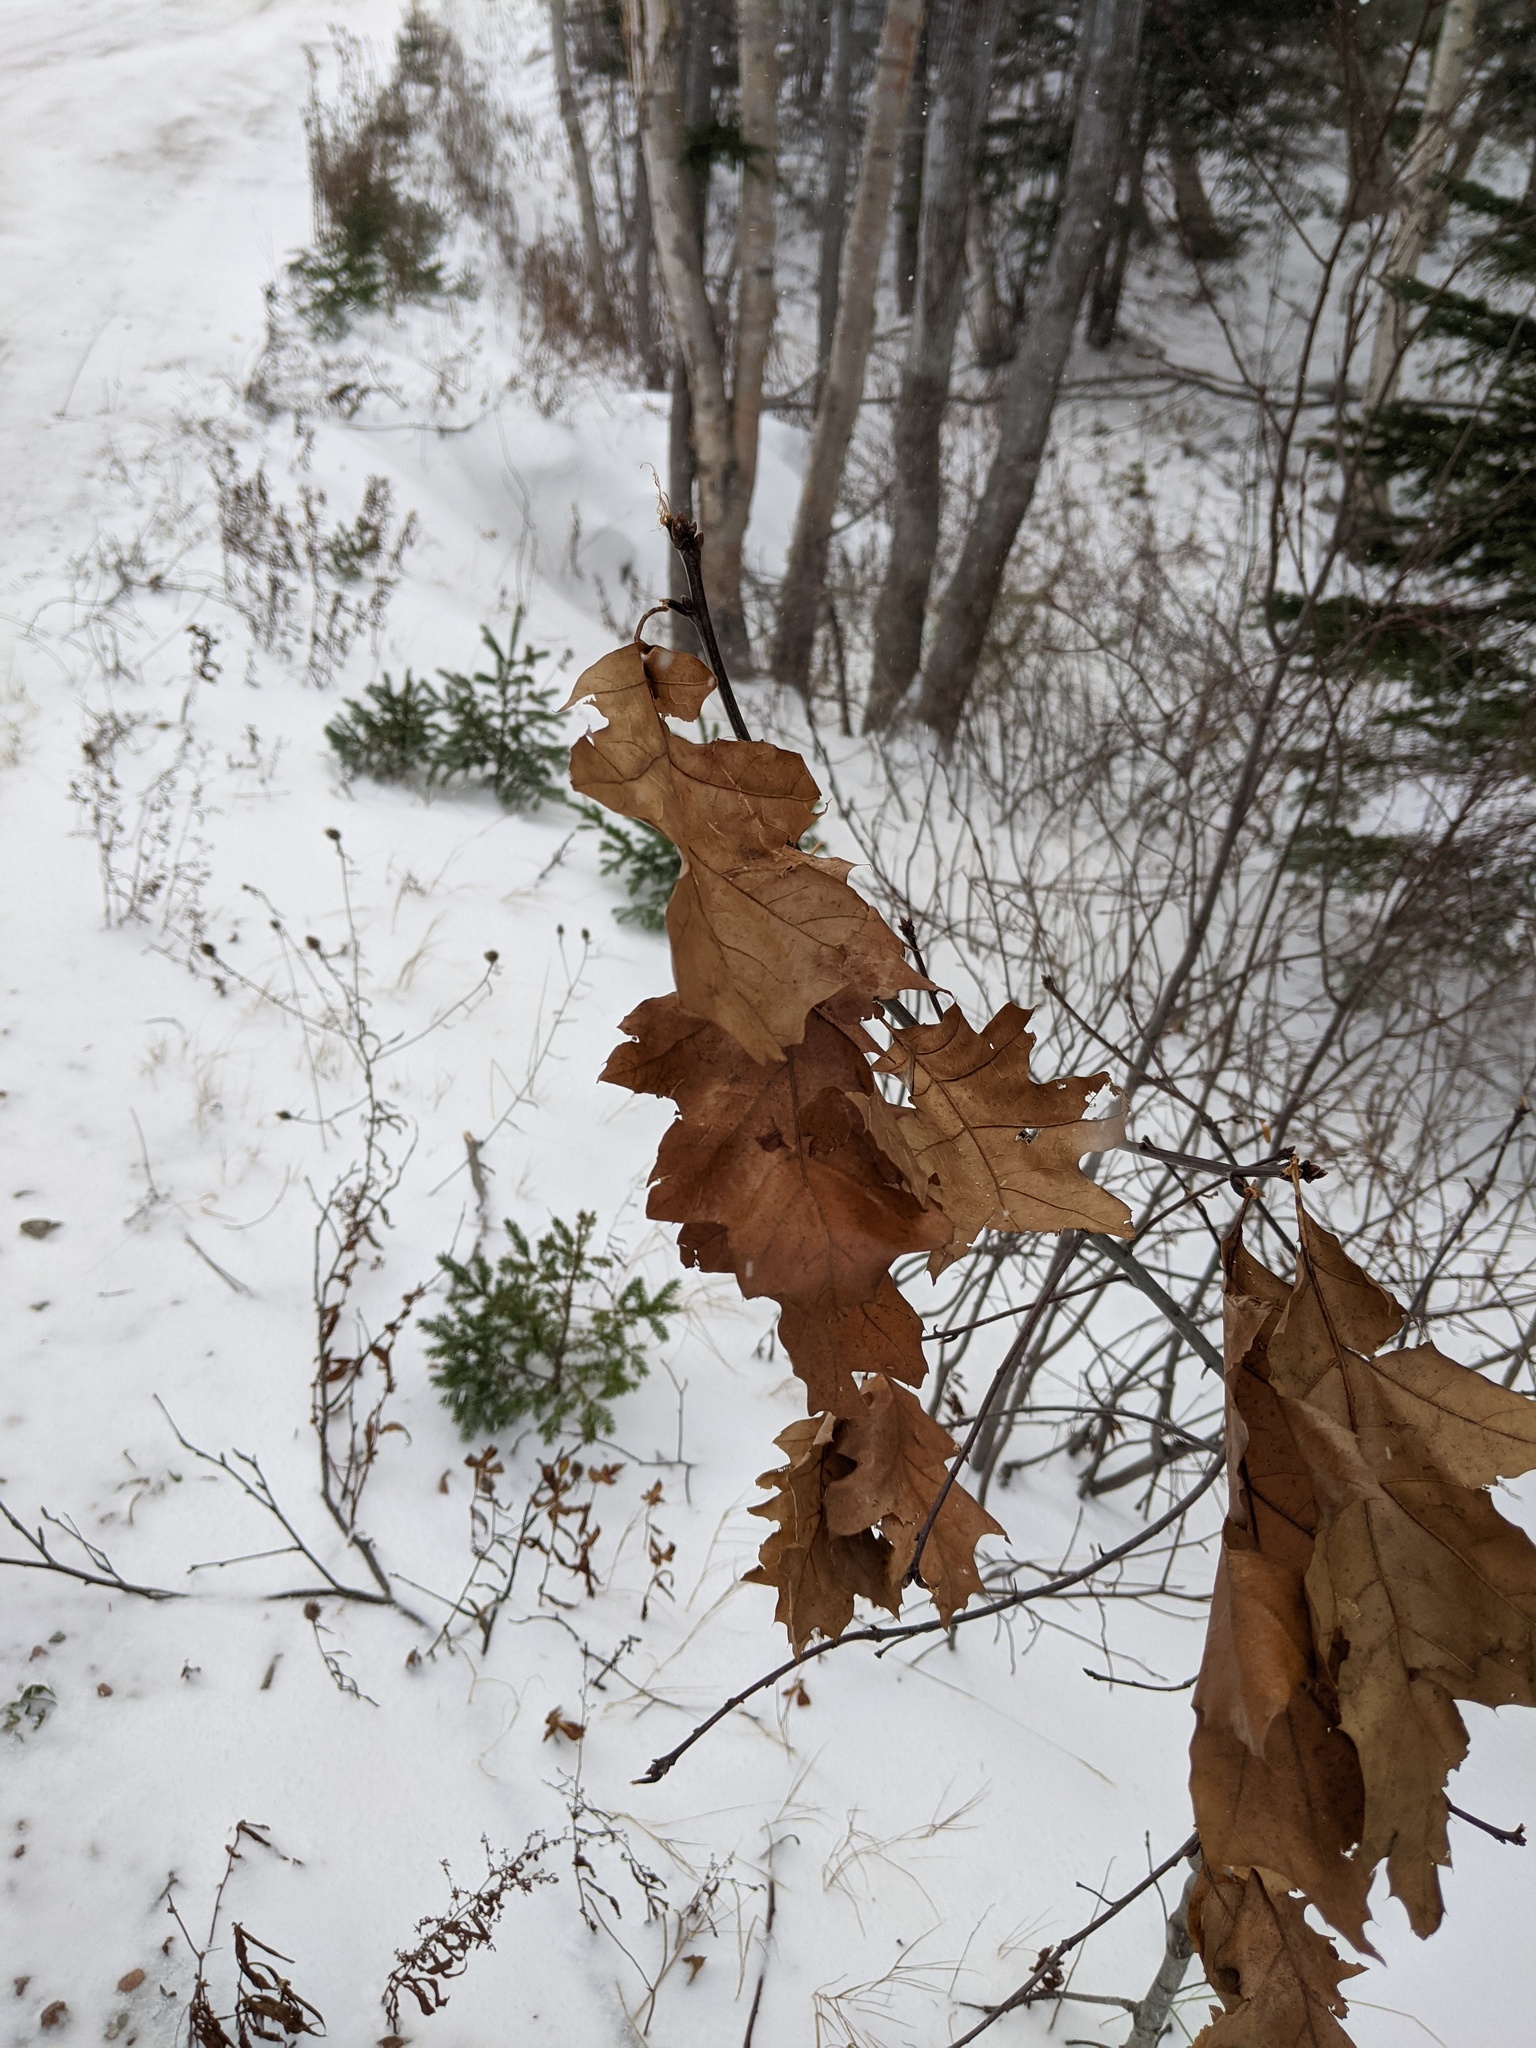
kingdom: Plantae
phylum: Tracheophyta
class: Magnoliopsida
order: Fagales
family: Fagaceae
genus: Quercus
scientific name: Quercus rubra
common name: Red oak
